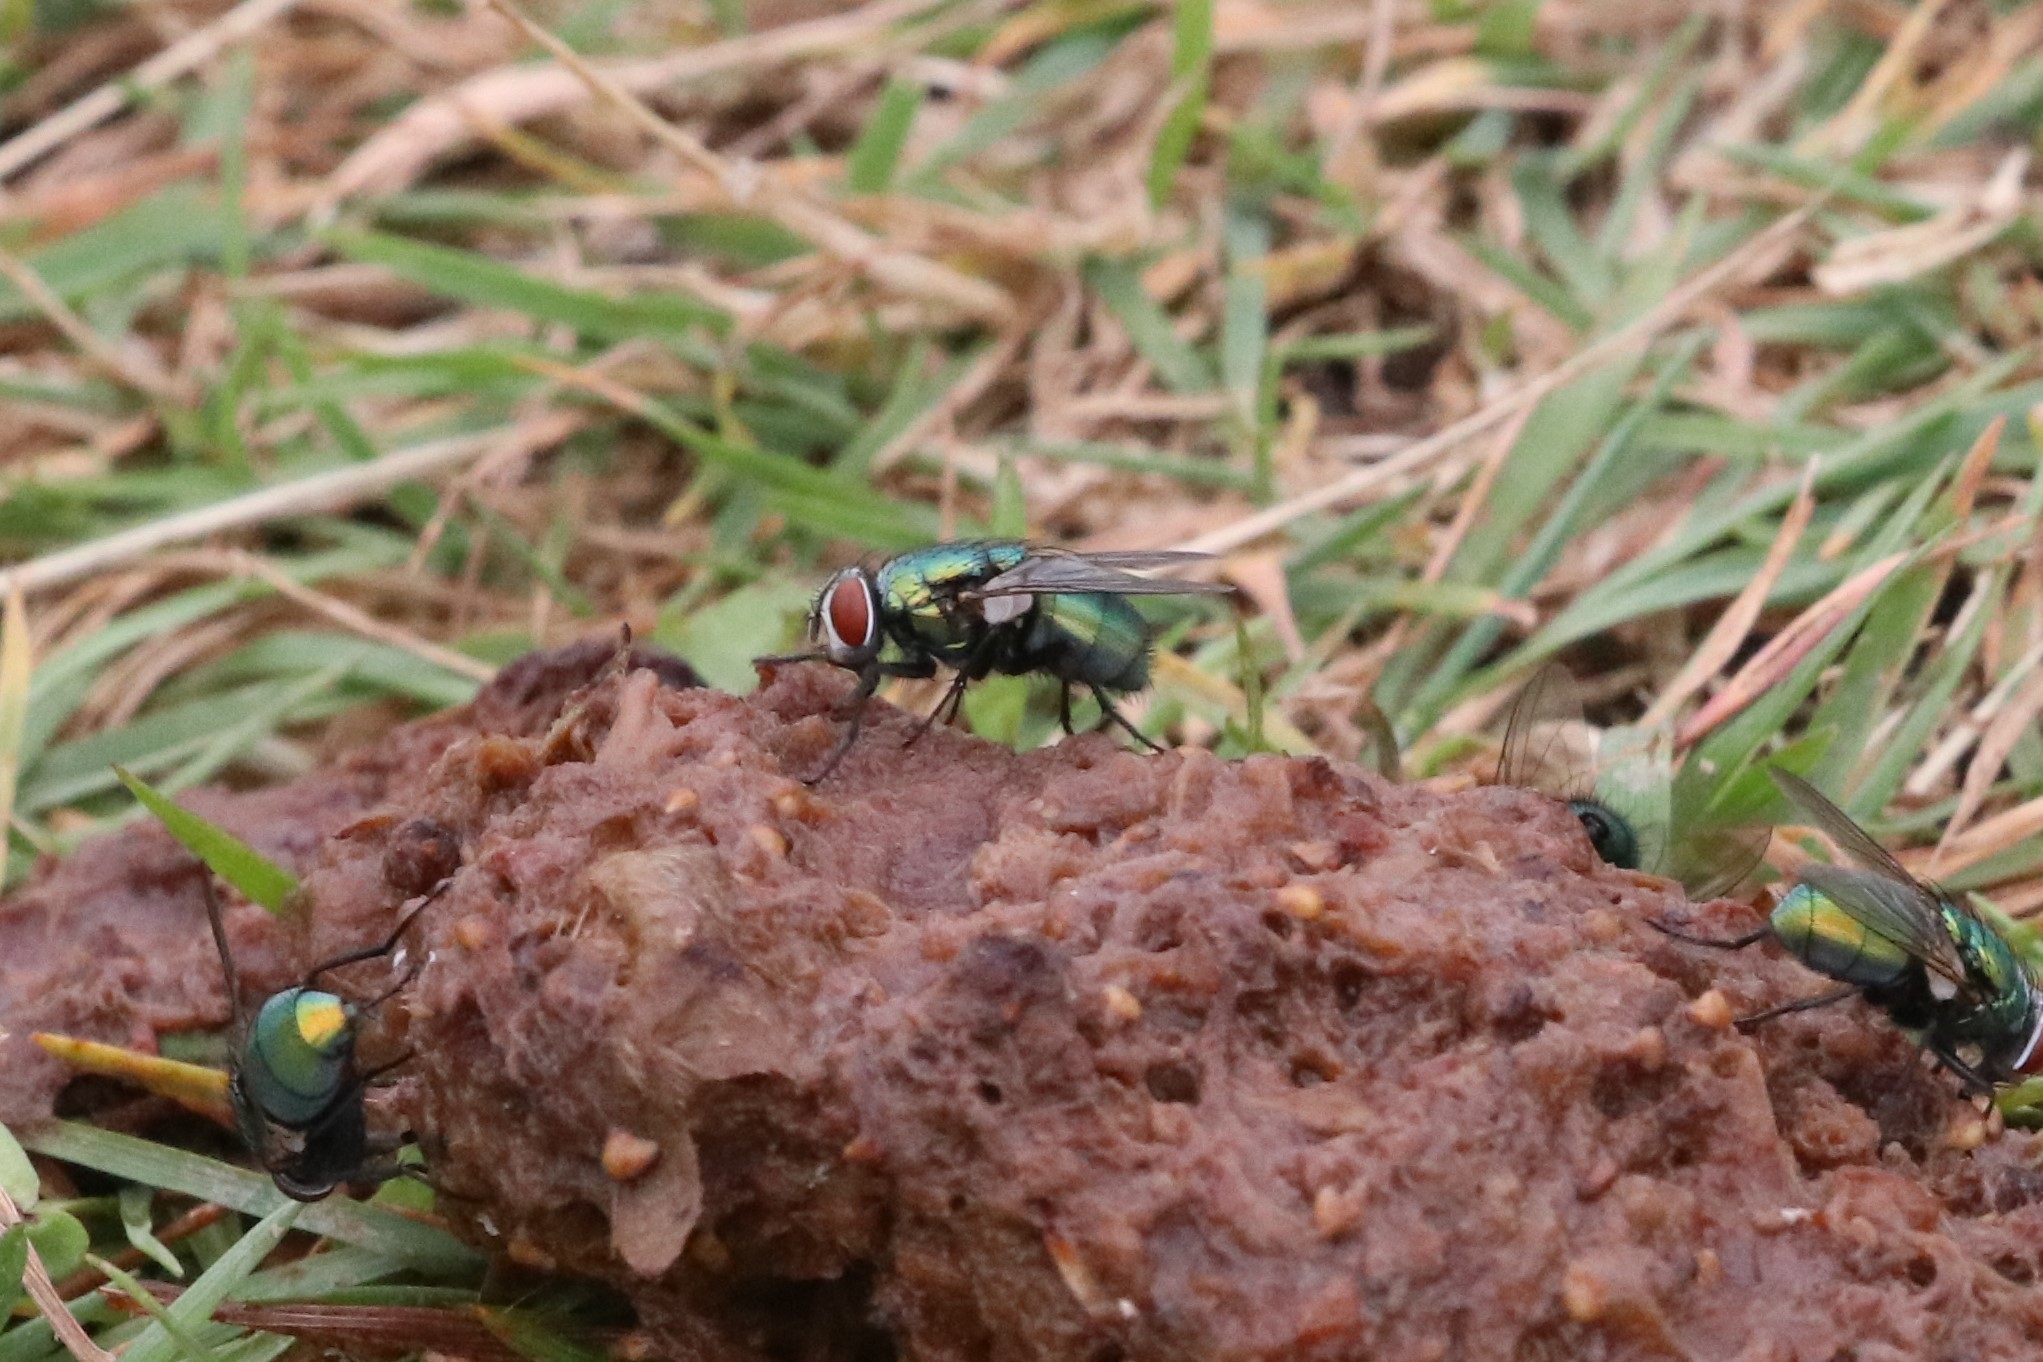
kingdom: Animalia
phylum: Arthropoda
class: Insecta
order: Diptera
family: Calliphoridae
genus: Lucilia
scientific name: Lucilia sericata
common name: Blow fly
